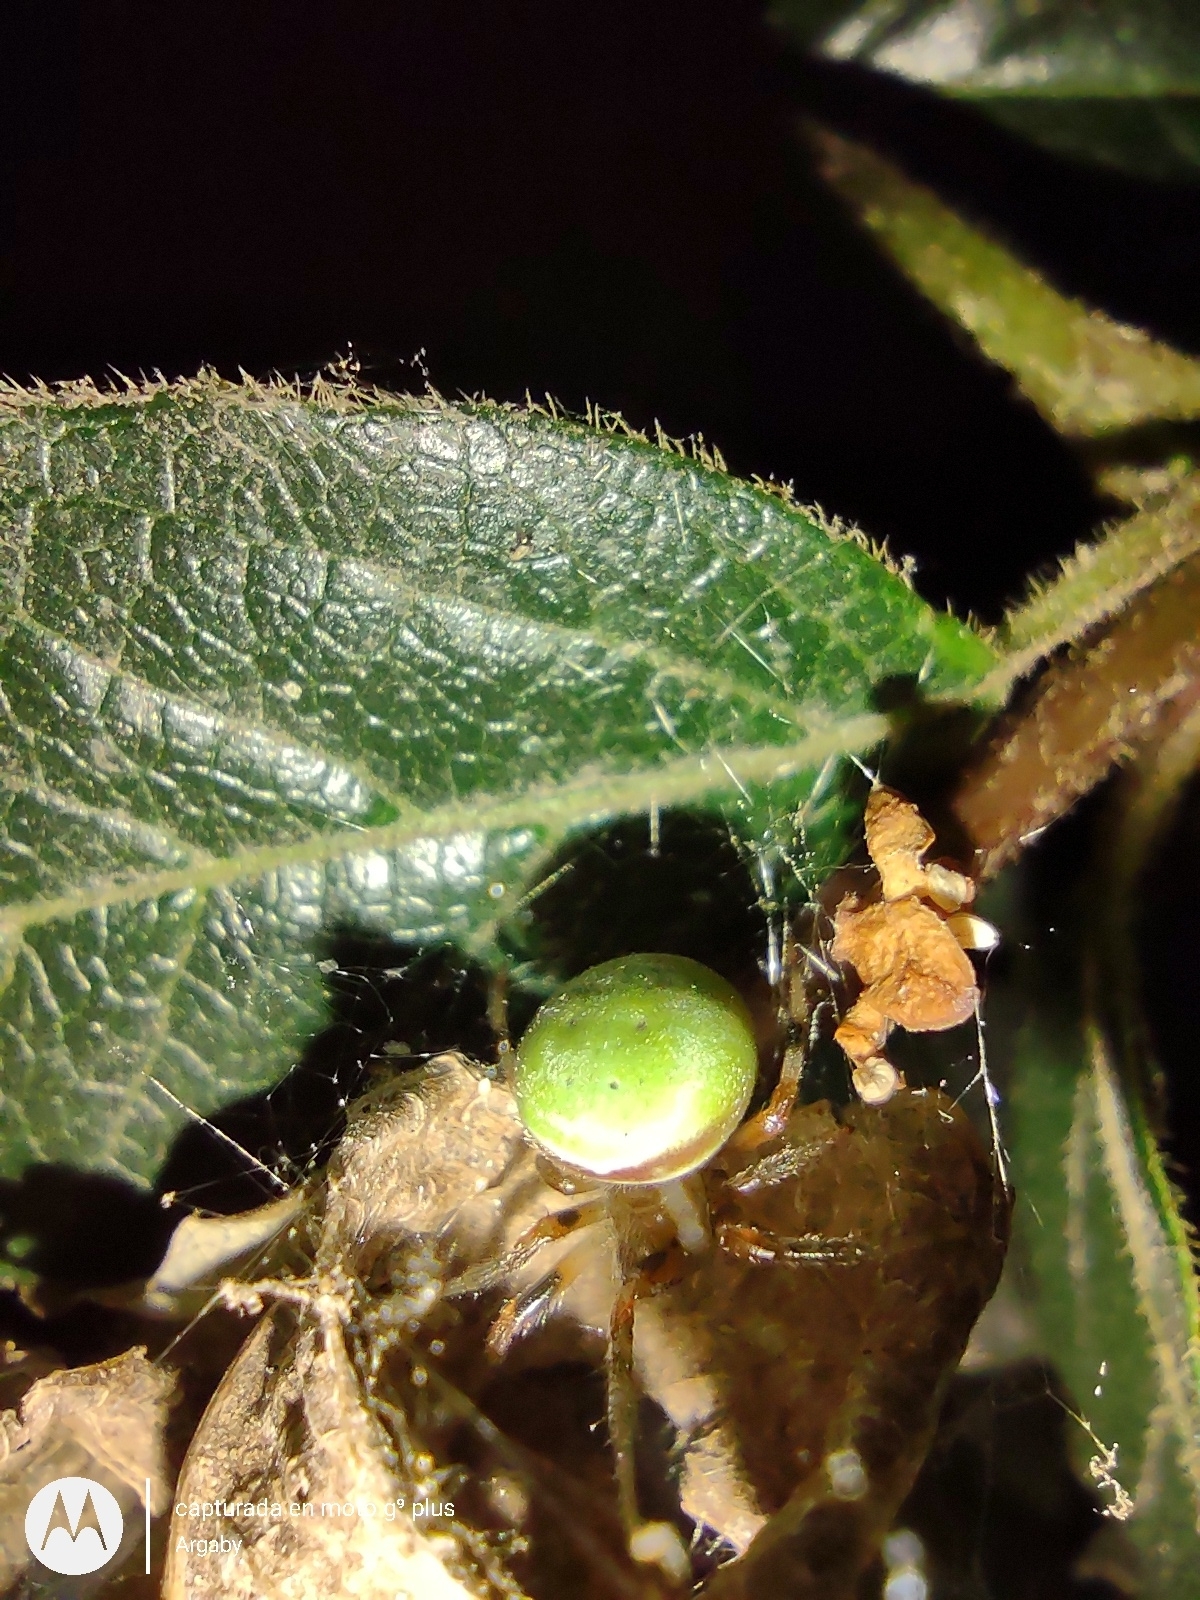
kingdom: Animalia
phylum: Arthropoda
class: Arachnida
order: Araneae
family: Araneidae
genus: Araneus
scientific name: Araneus lathyrinus
